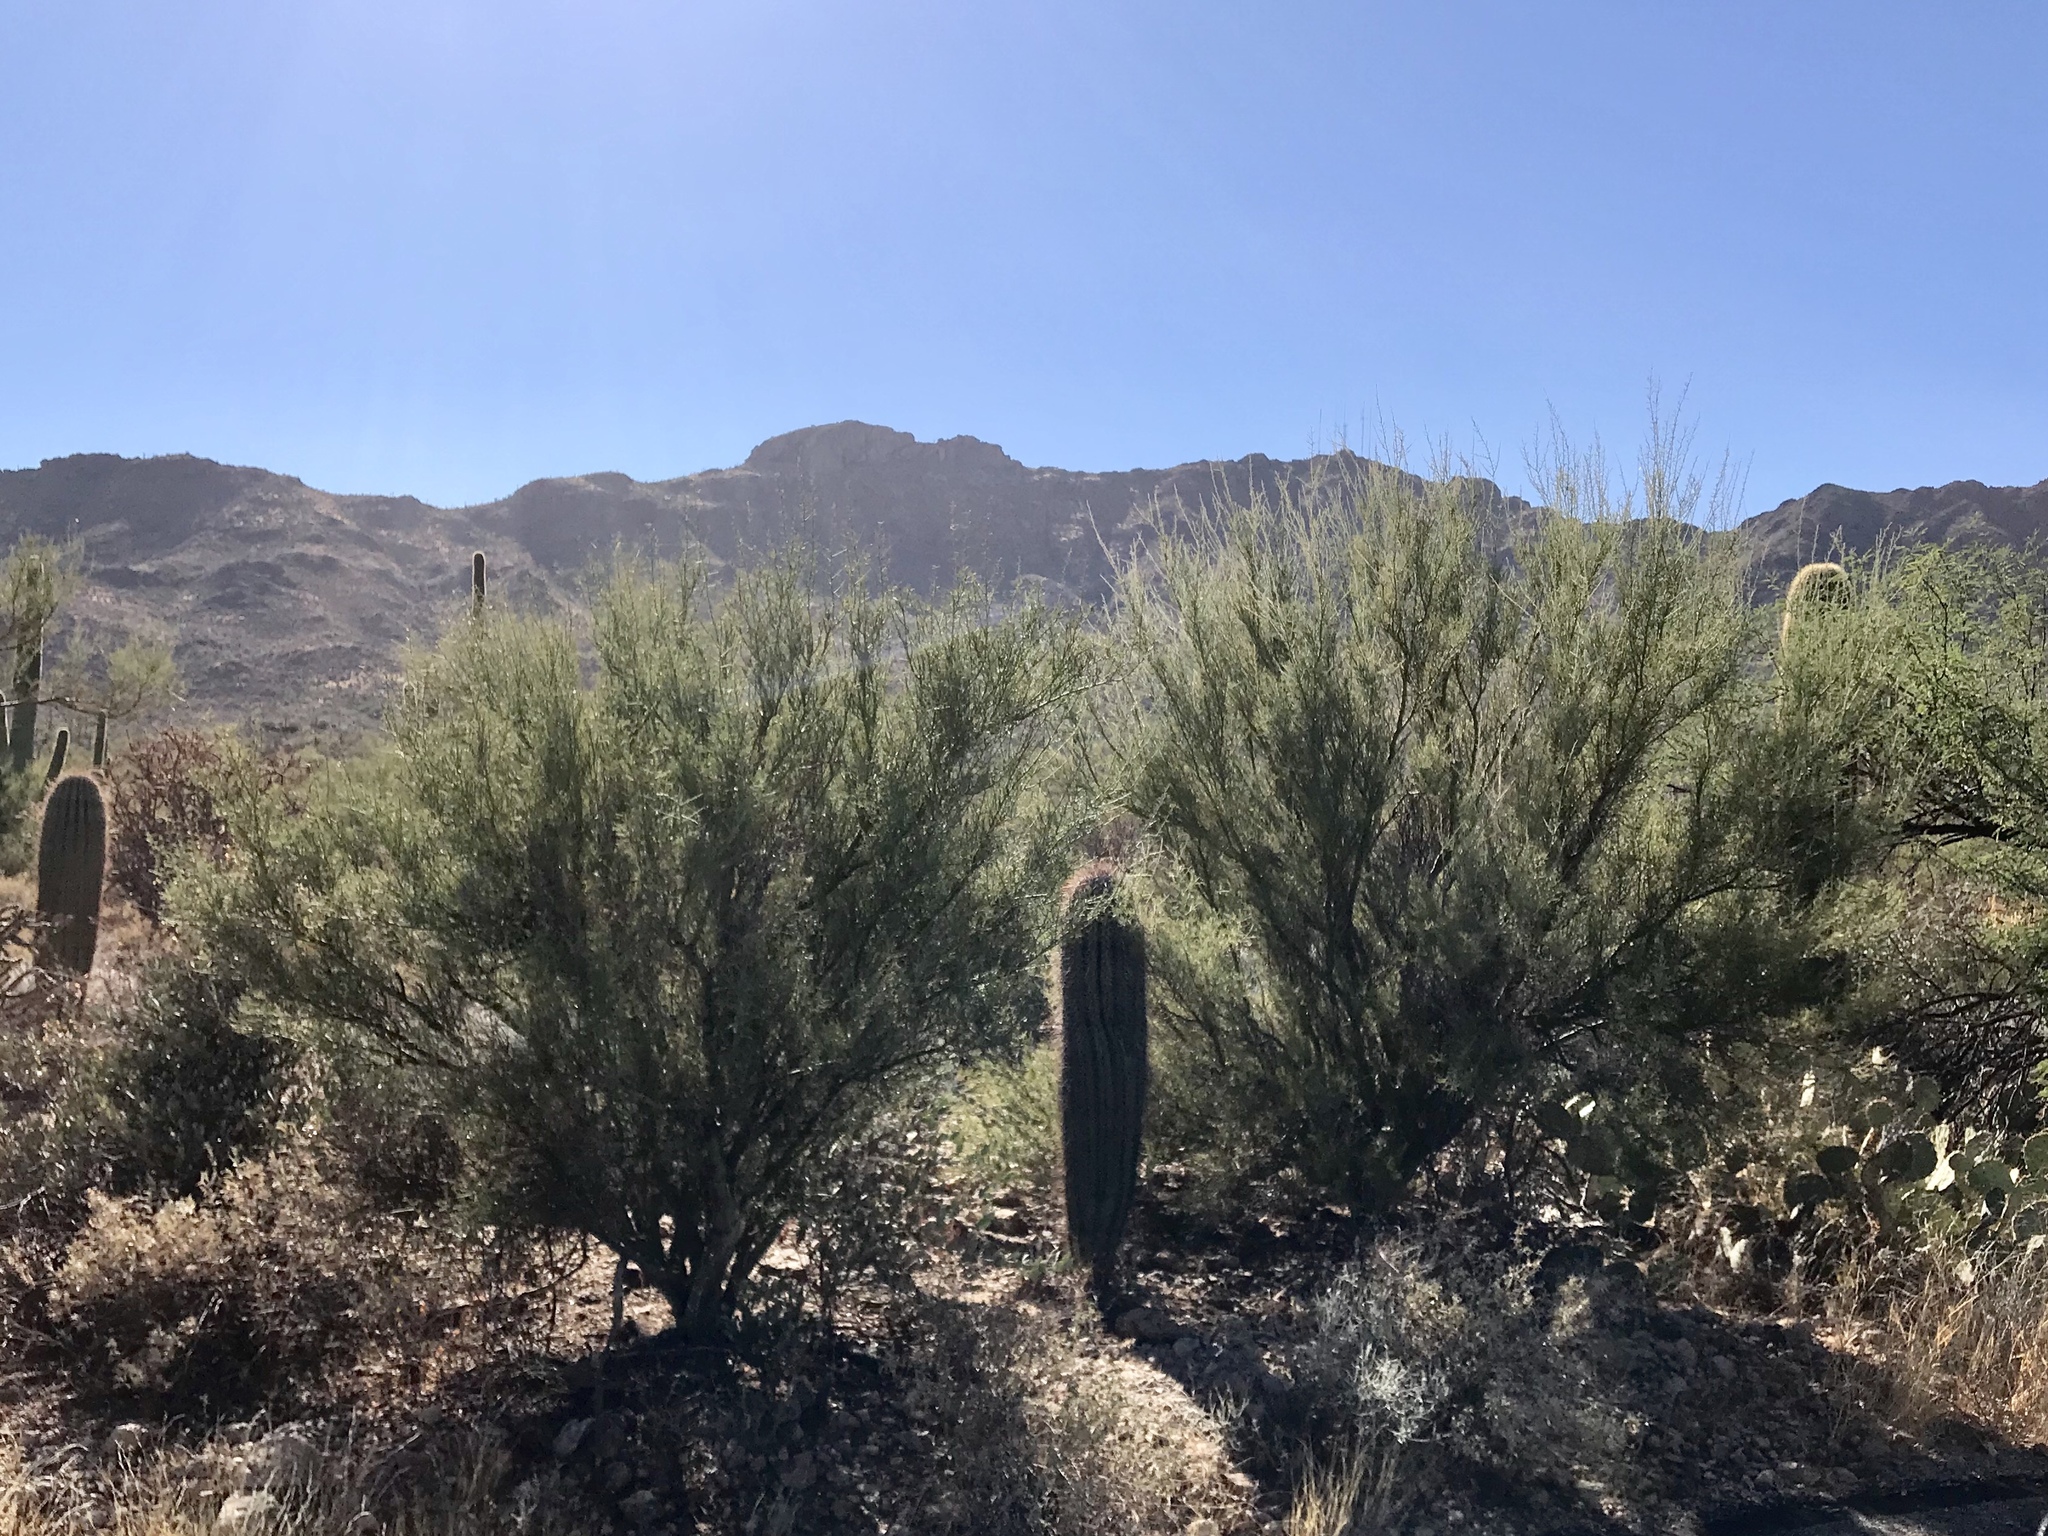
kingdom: Plantae
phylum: Tracheophyta
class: Magnoliopsida
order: Fabales
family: Fabaceae
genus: Parkinsonia
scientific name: Parkinsonia microphylla
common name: Yellow paloverde
